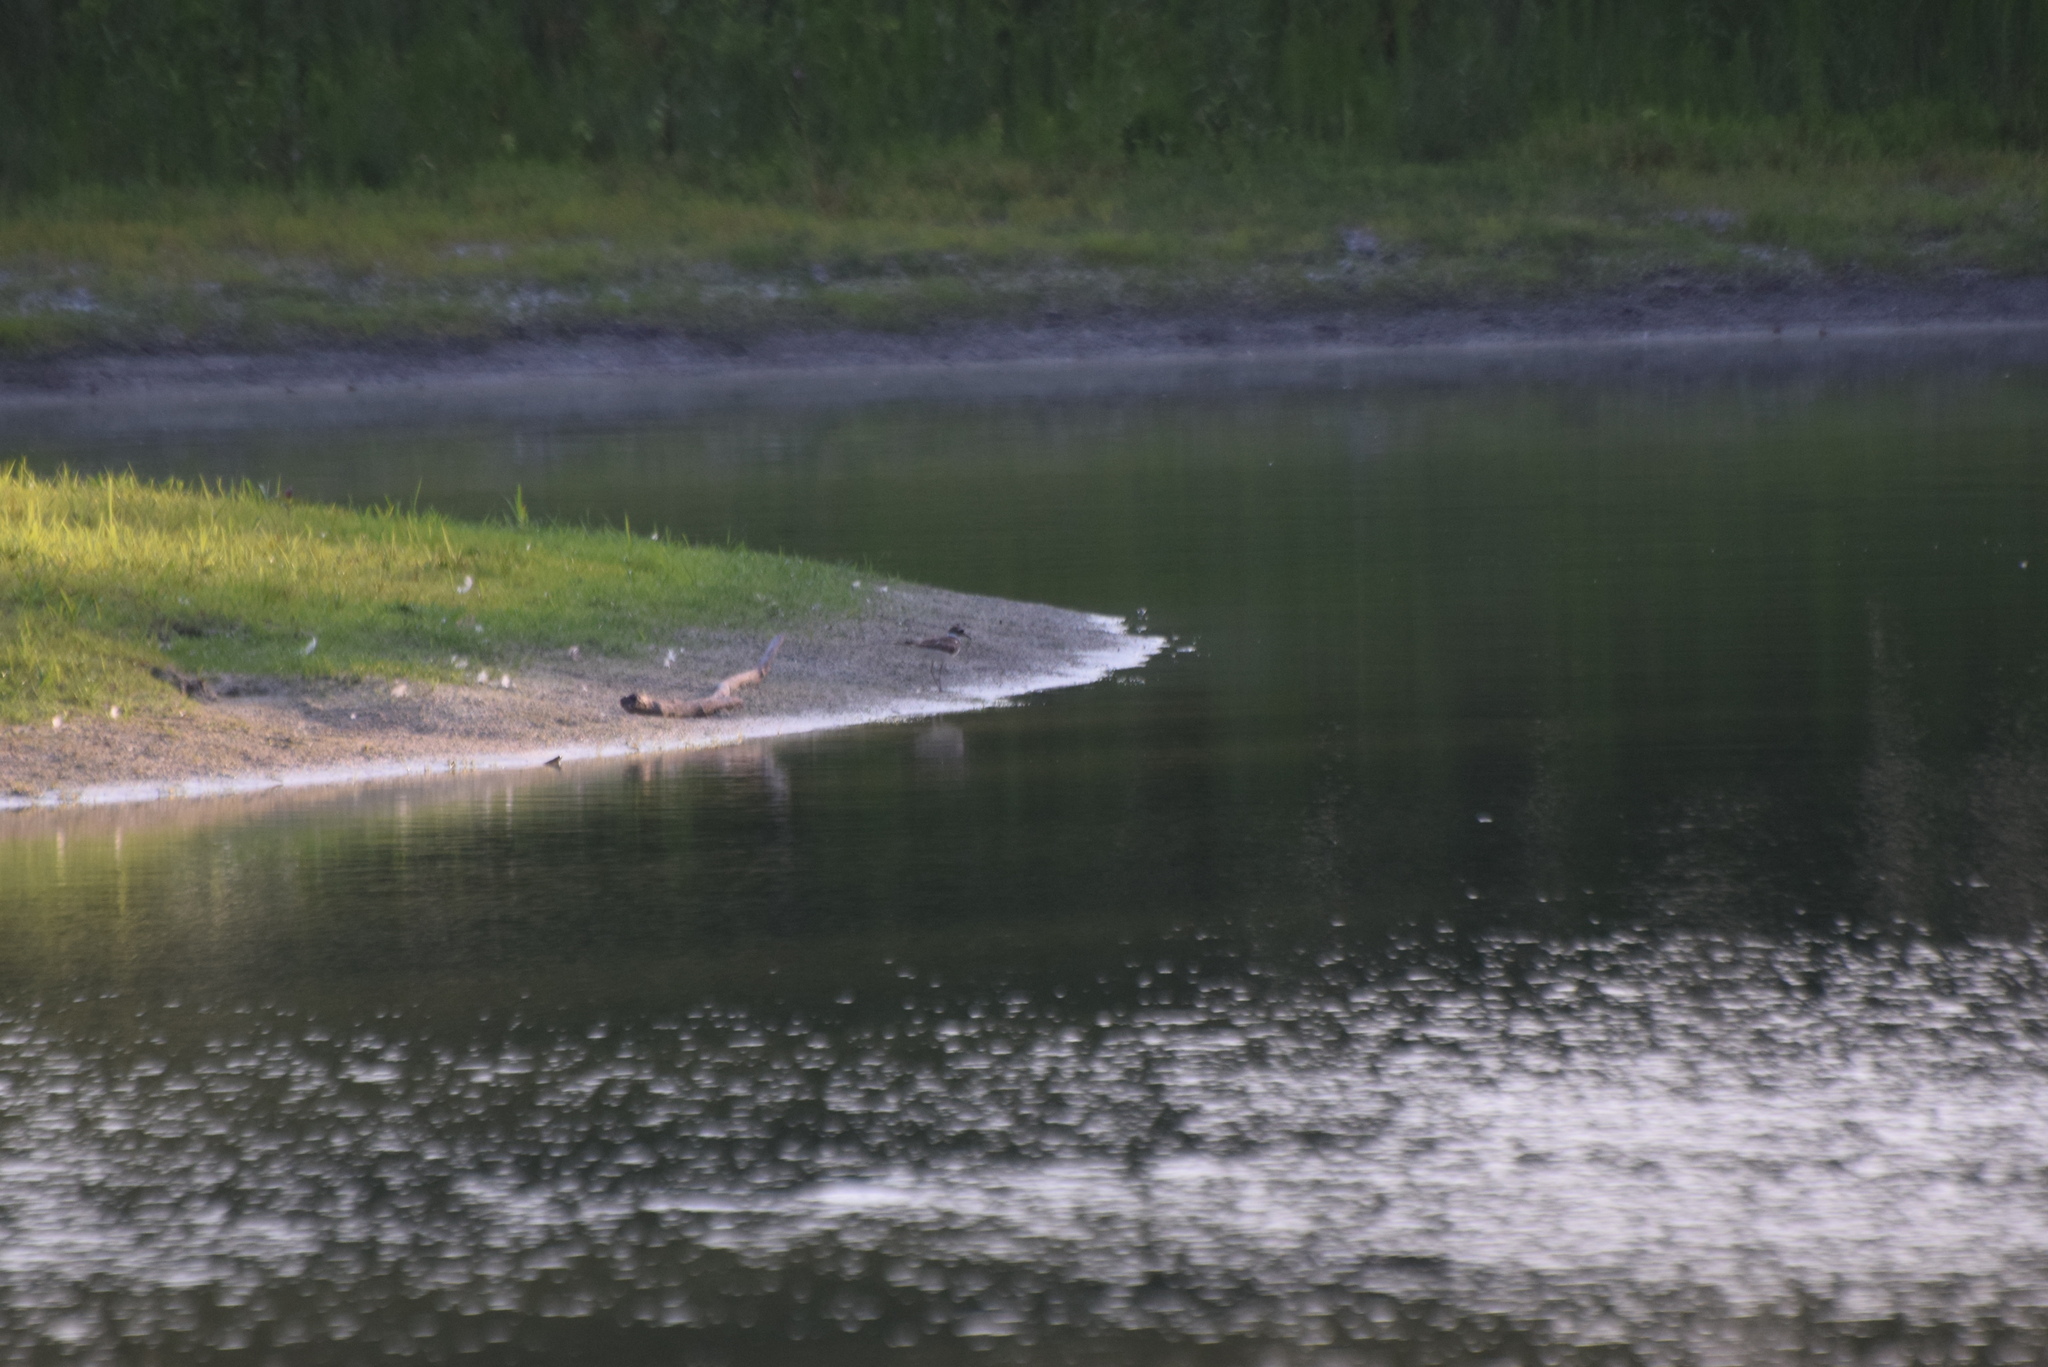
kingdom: Animalia
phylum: Chordata
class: Aves
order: Charadriiformes
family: Charadriidae
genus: Charadrius
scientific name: Charadrius vociferus
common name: Killdeer
